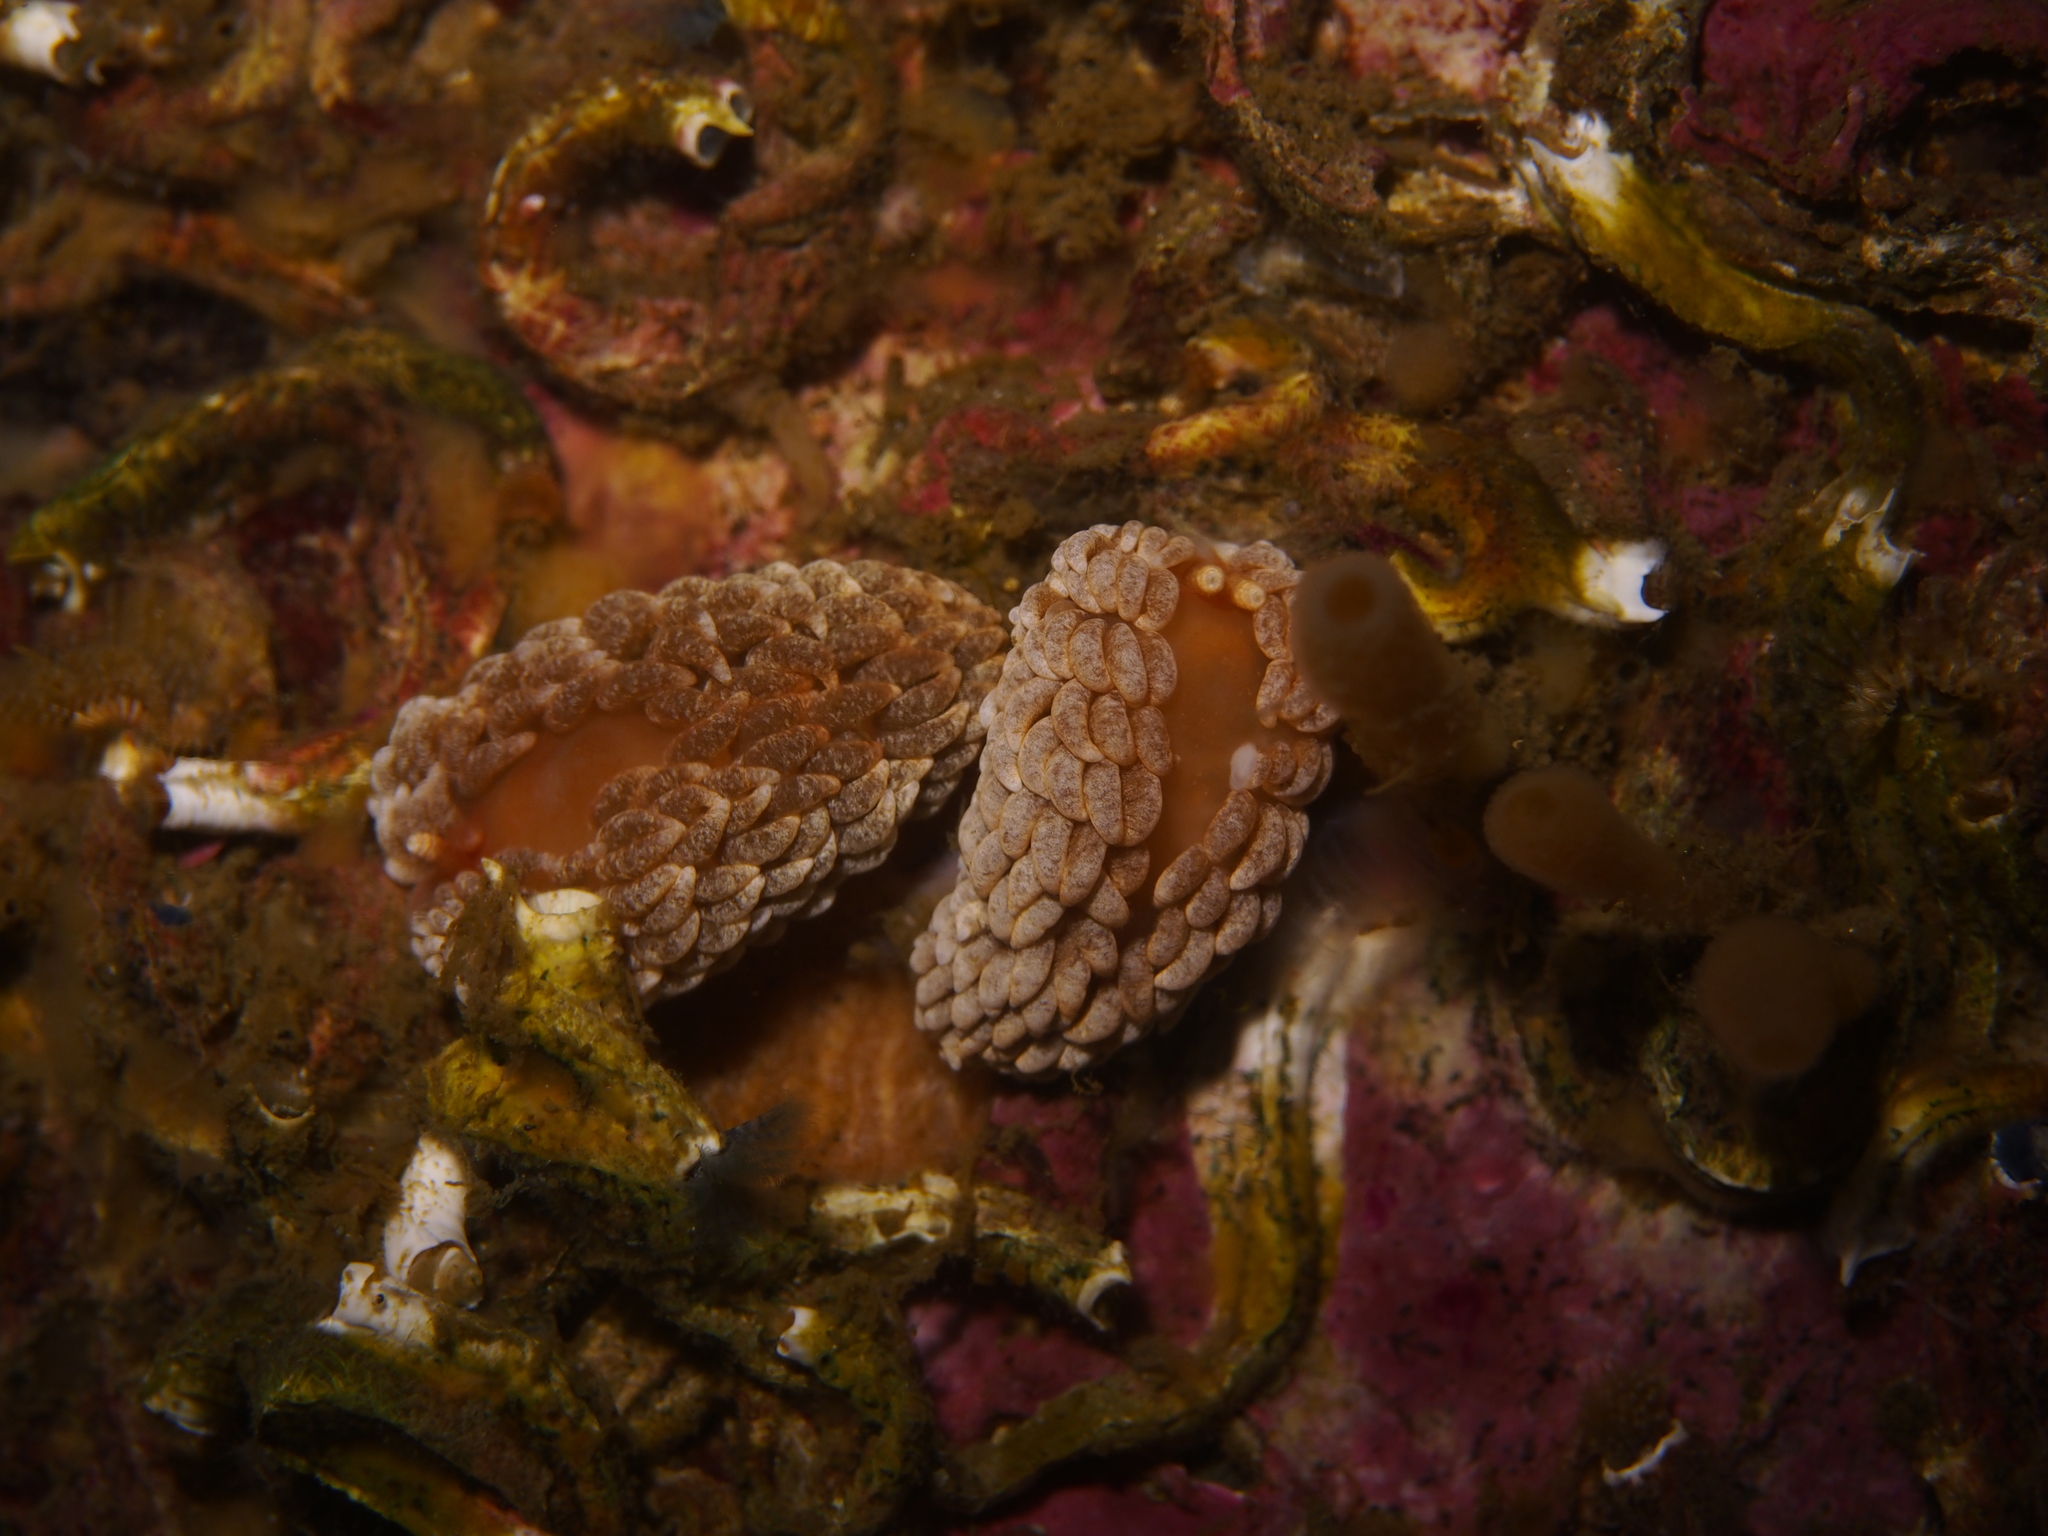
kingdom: Animalia
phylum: Mollusca
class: Gastropoda
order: Nudibranchia
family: Aeolidiidae
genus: Aeolidiella
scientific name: Aeolidiella glauca
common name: Orange-brown aeolid
